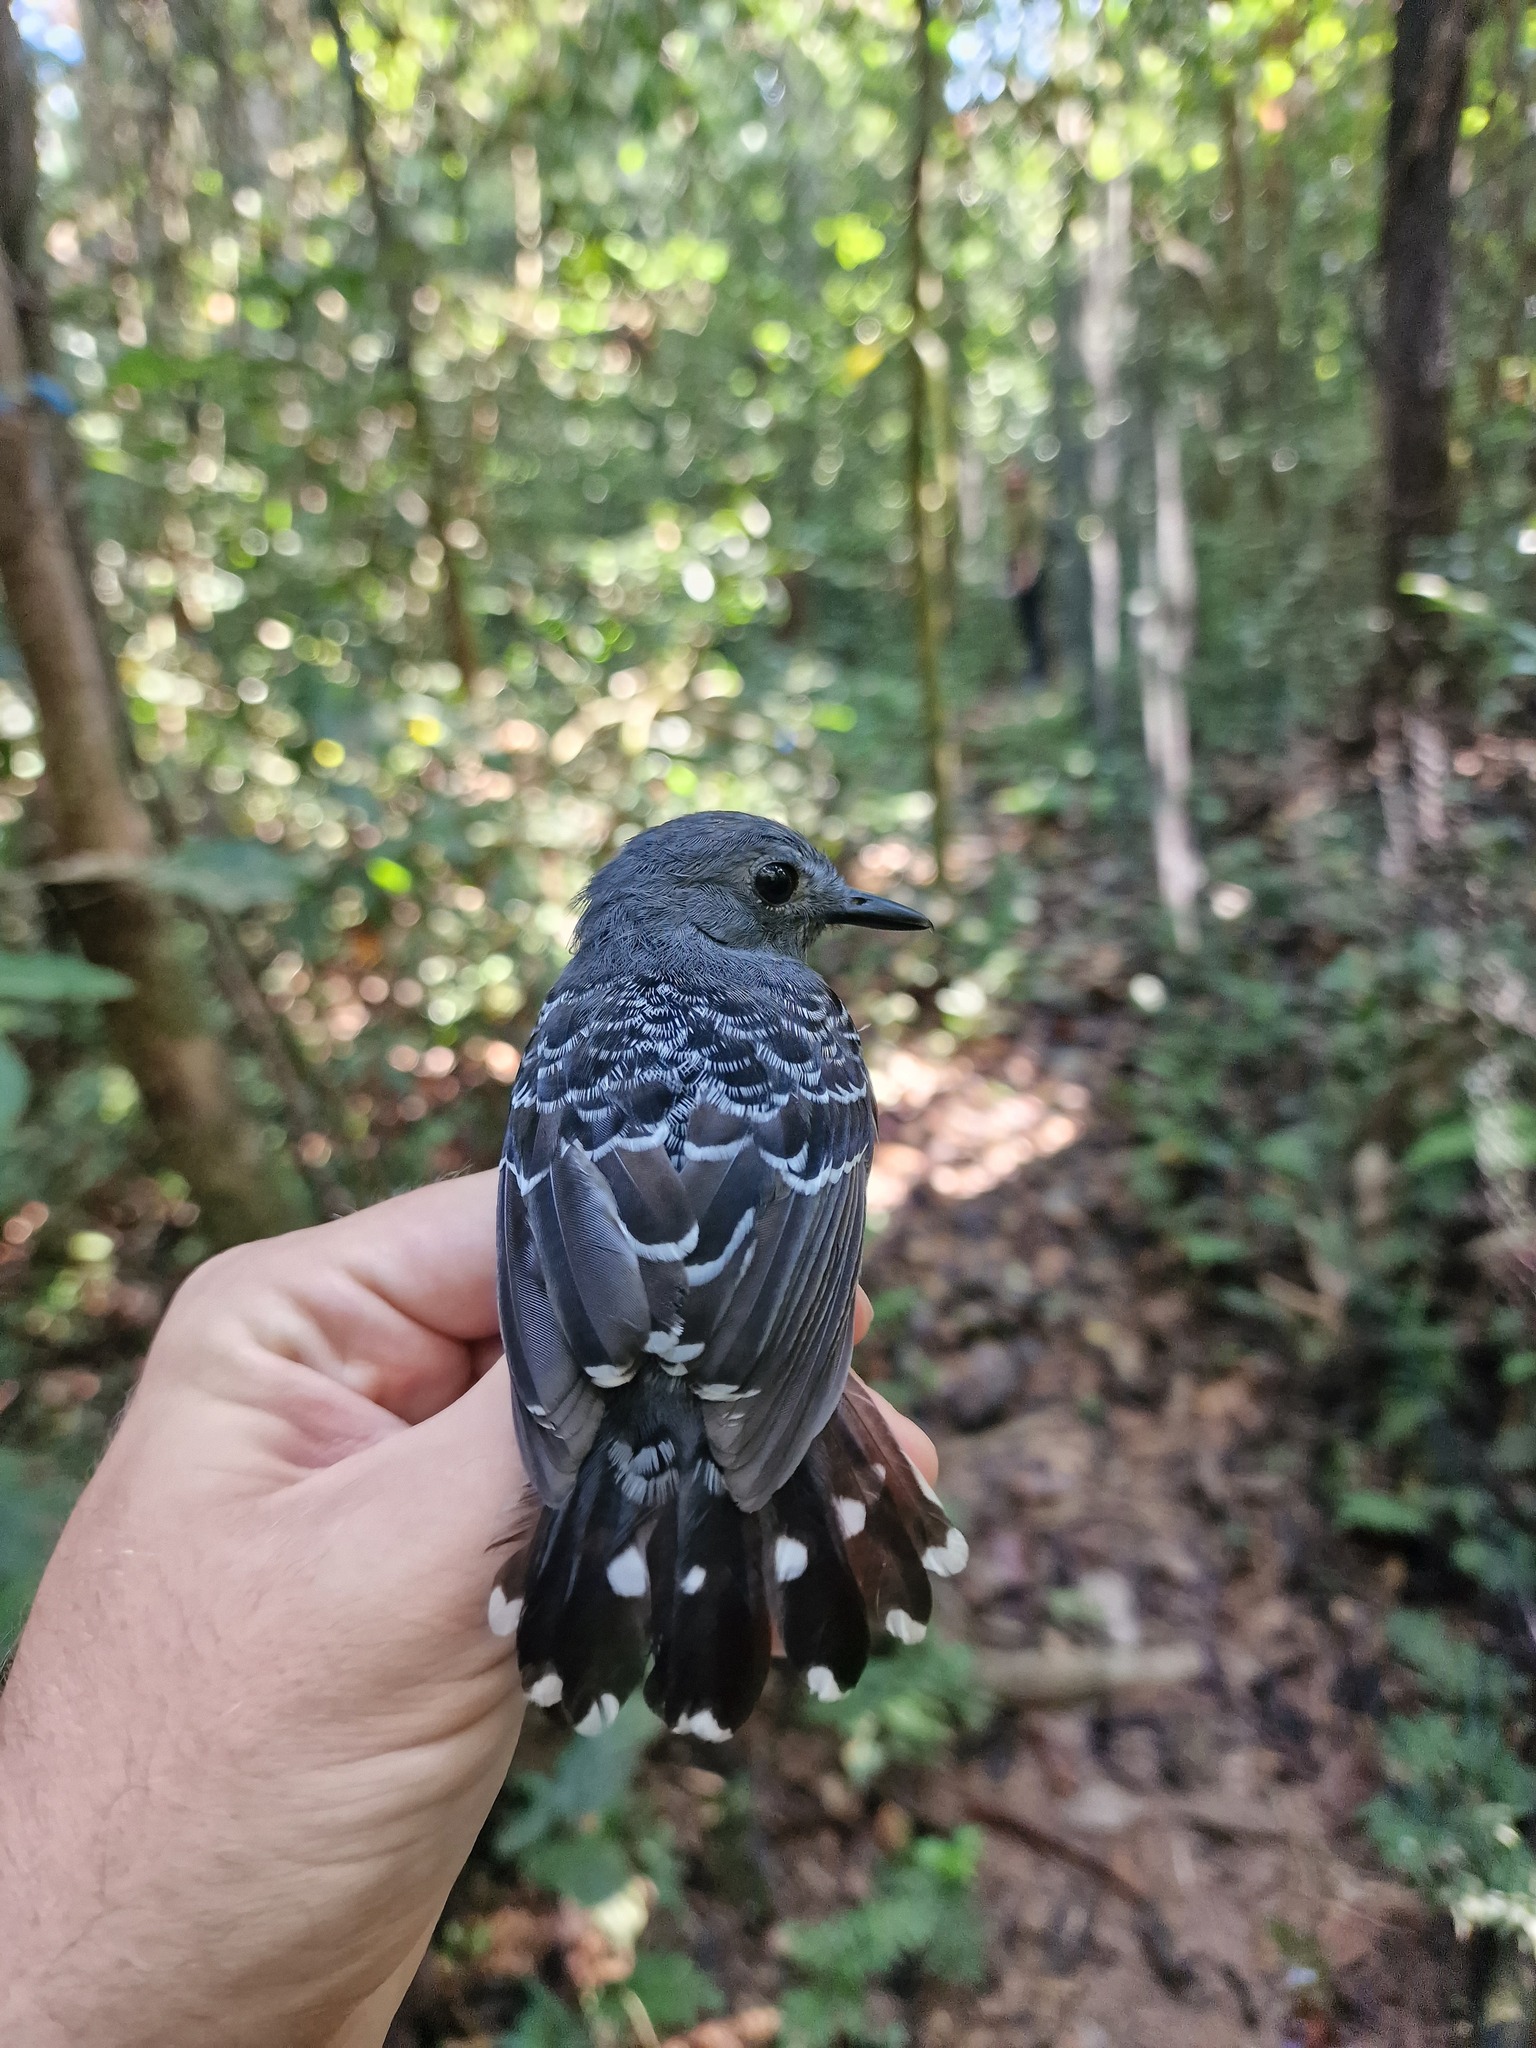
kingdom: Animalia
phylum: Chordata
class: Aves
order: Passeriformes
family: Thamnophilidae
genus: Willisornis
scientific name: Willisornis poecilinotus
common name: Common scale-backed antbird
